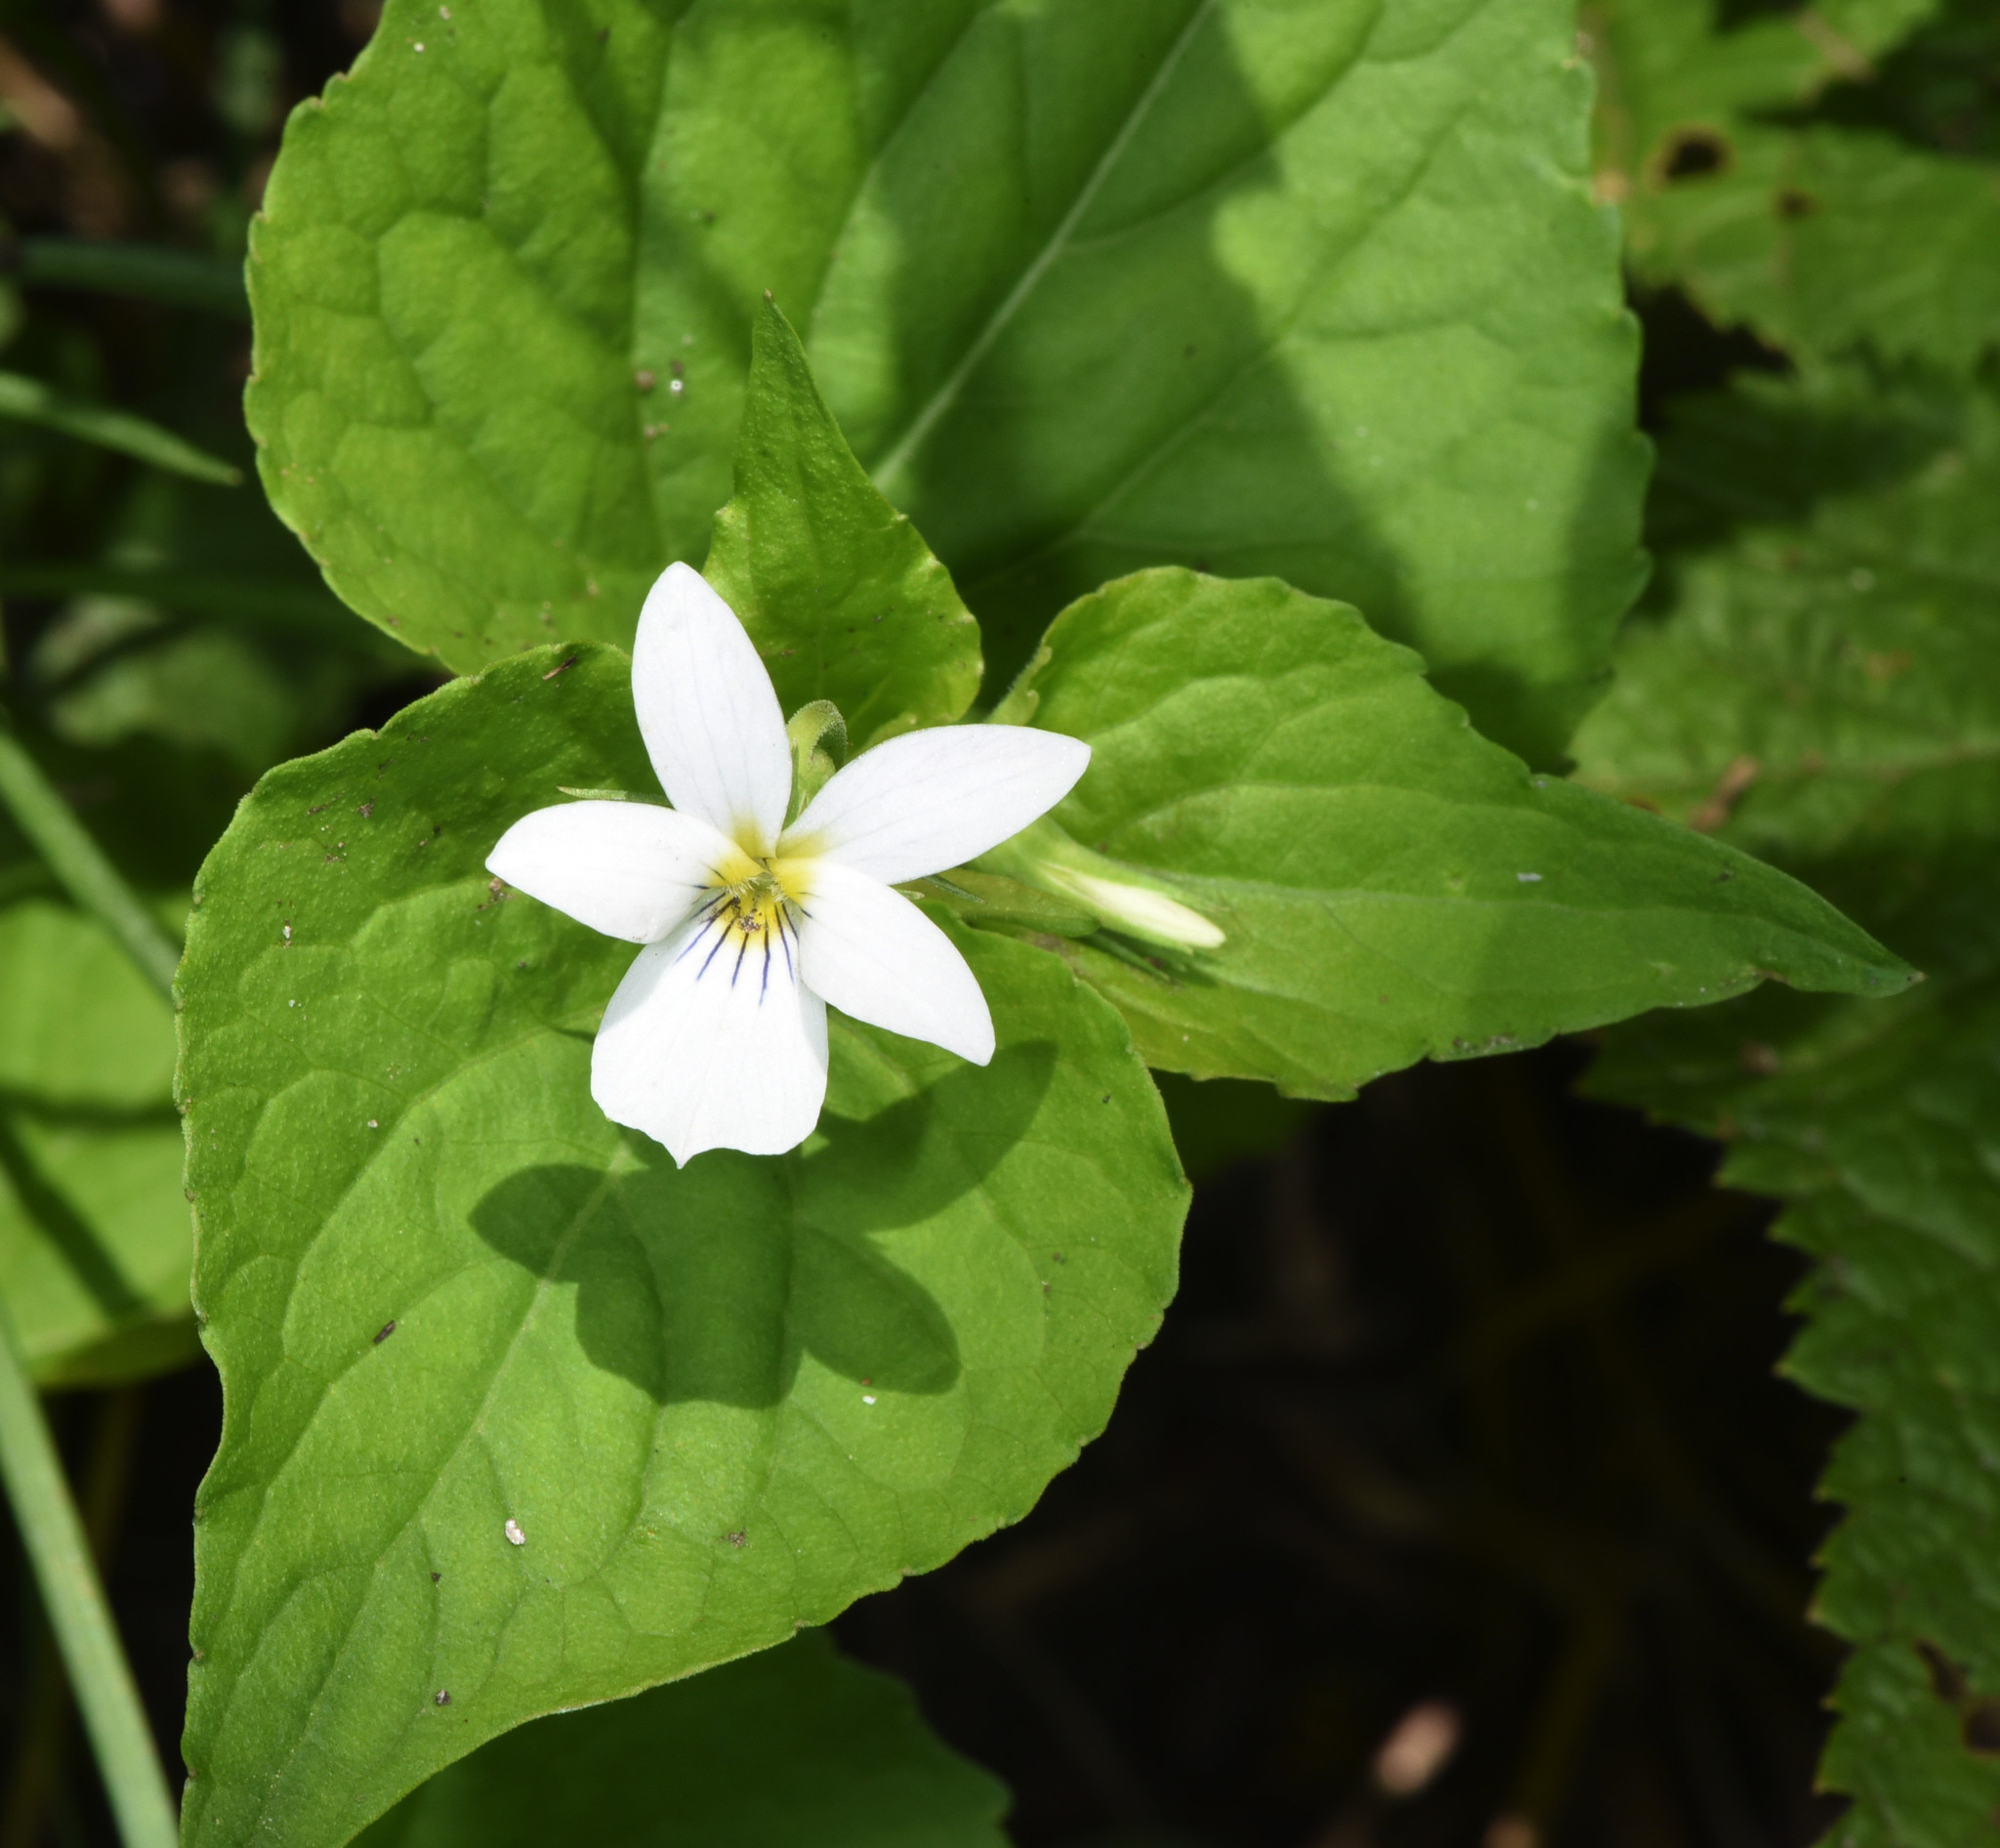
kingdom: Plantae
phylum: Tracheophyta
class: Magnoliopsida
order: Malpighiales
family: Violaceae
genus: Viola
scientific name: Viola canadensis
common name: Canada violet
